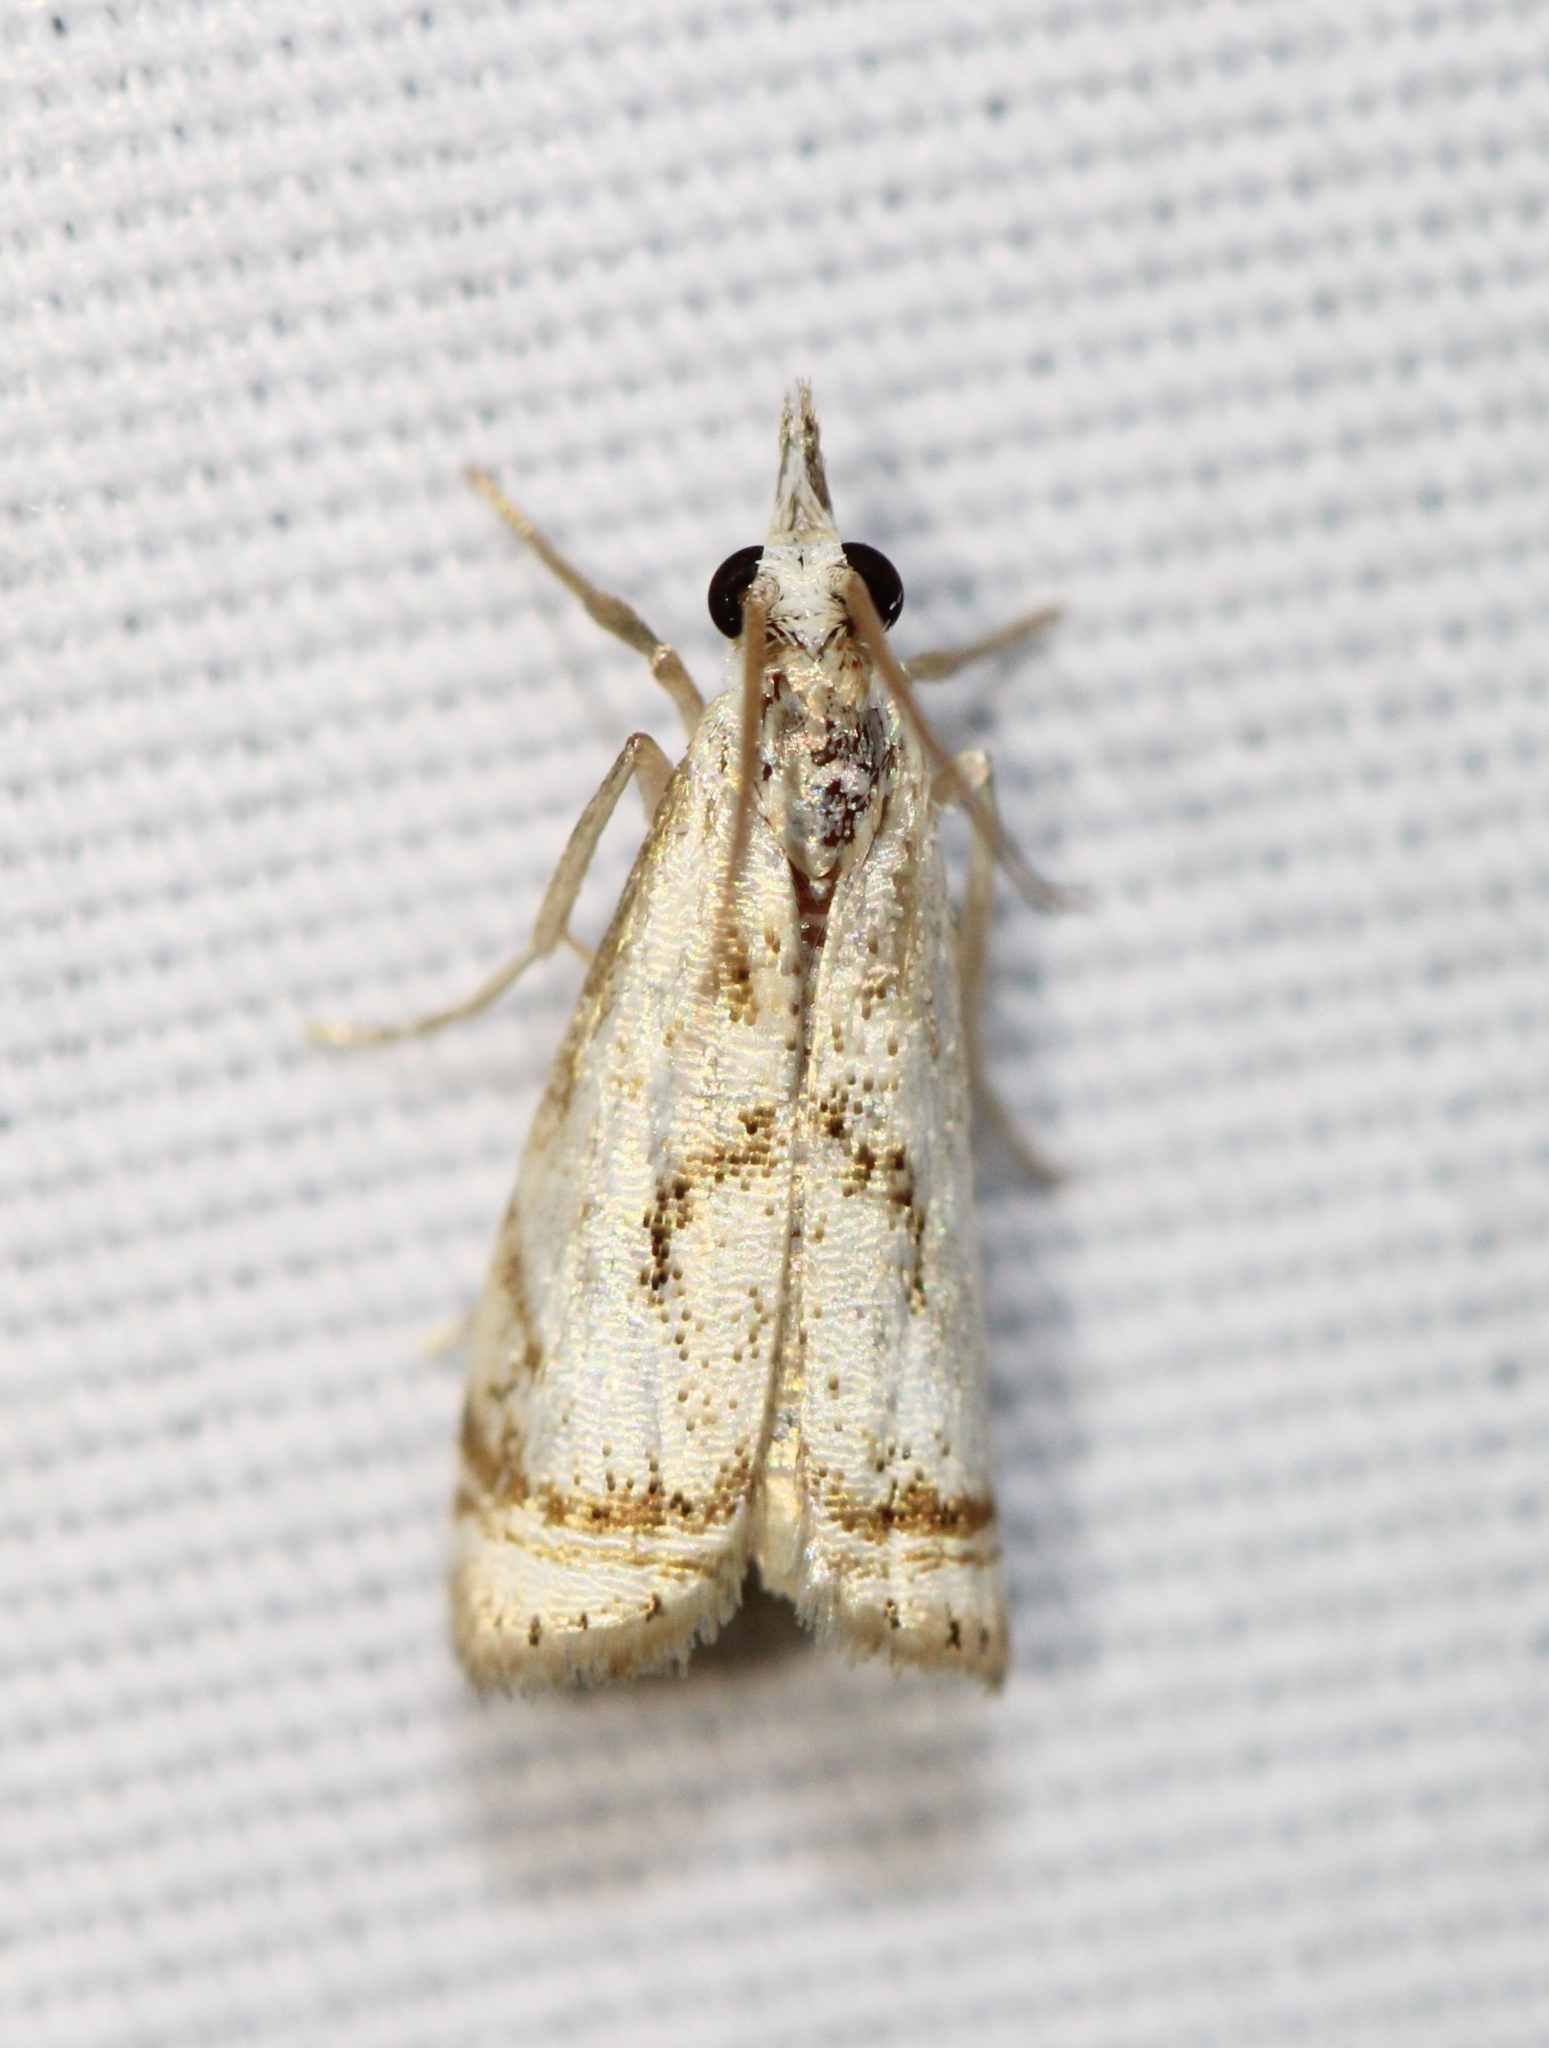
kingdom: Animalia
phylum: Arthropoda
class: Insecta
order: Lepidoptera
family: Crambidae
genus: Microcrambus
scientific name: Microcrambus elegans
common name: Elegant grass-veneer
